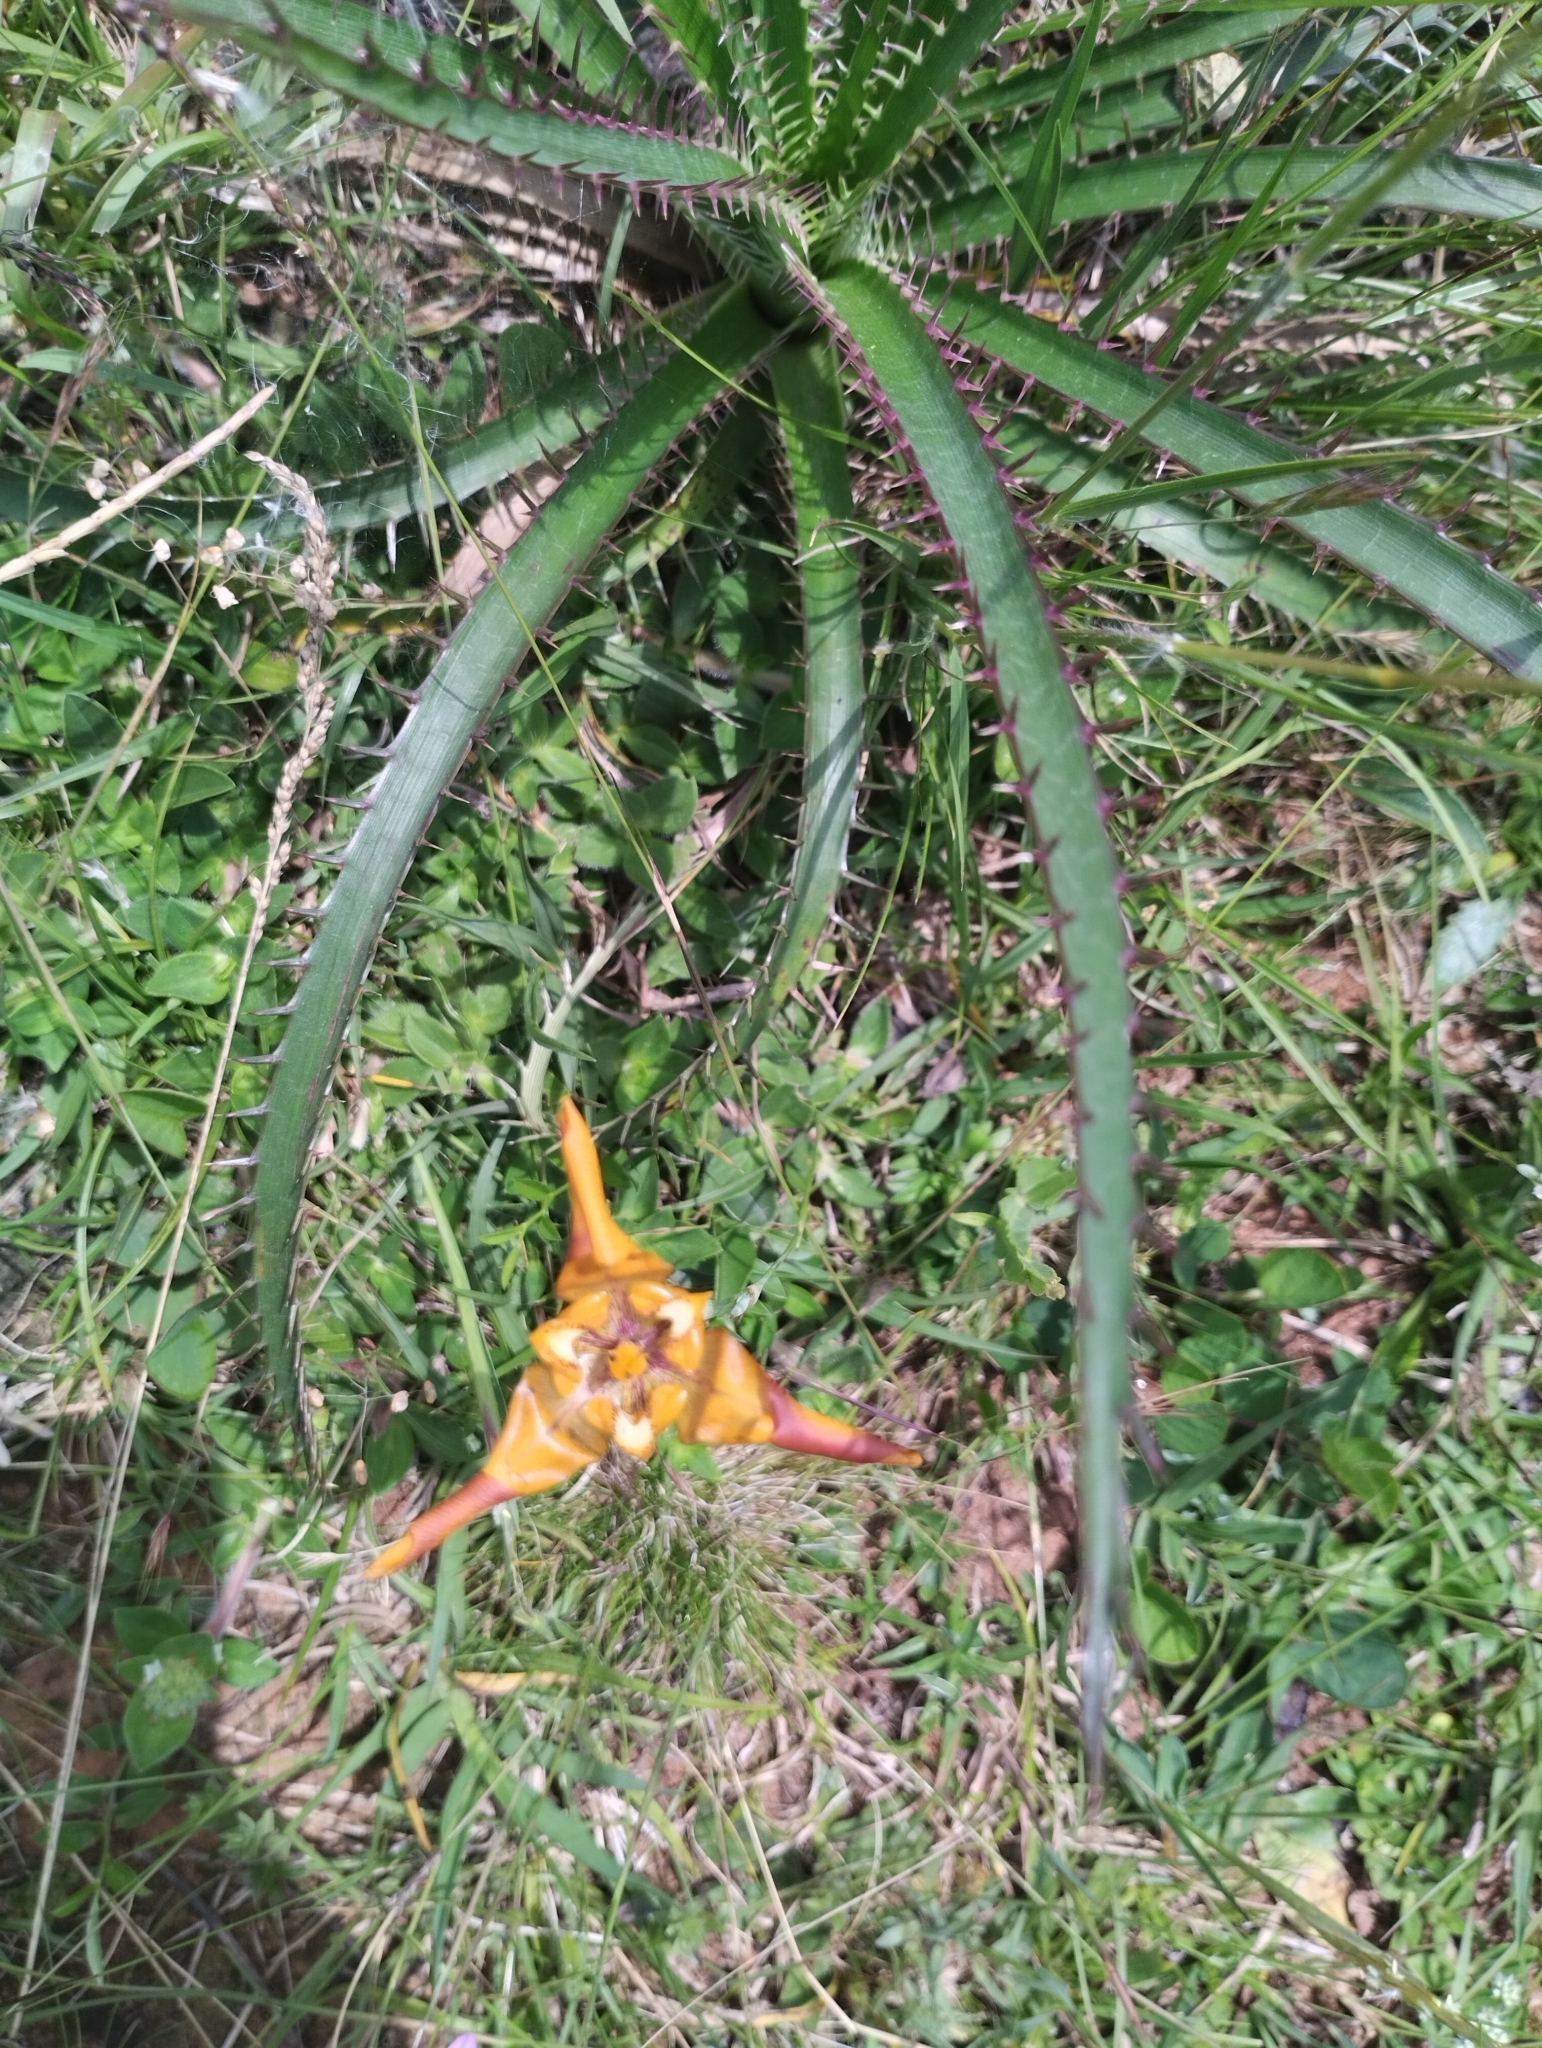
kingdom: Plantae
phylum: Tracheophyta
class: Liliopsida
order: Asparagales
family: Iridaceae
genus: Cypella
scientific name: Cypella fucata
